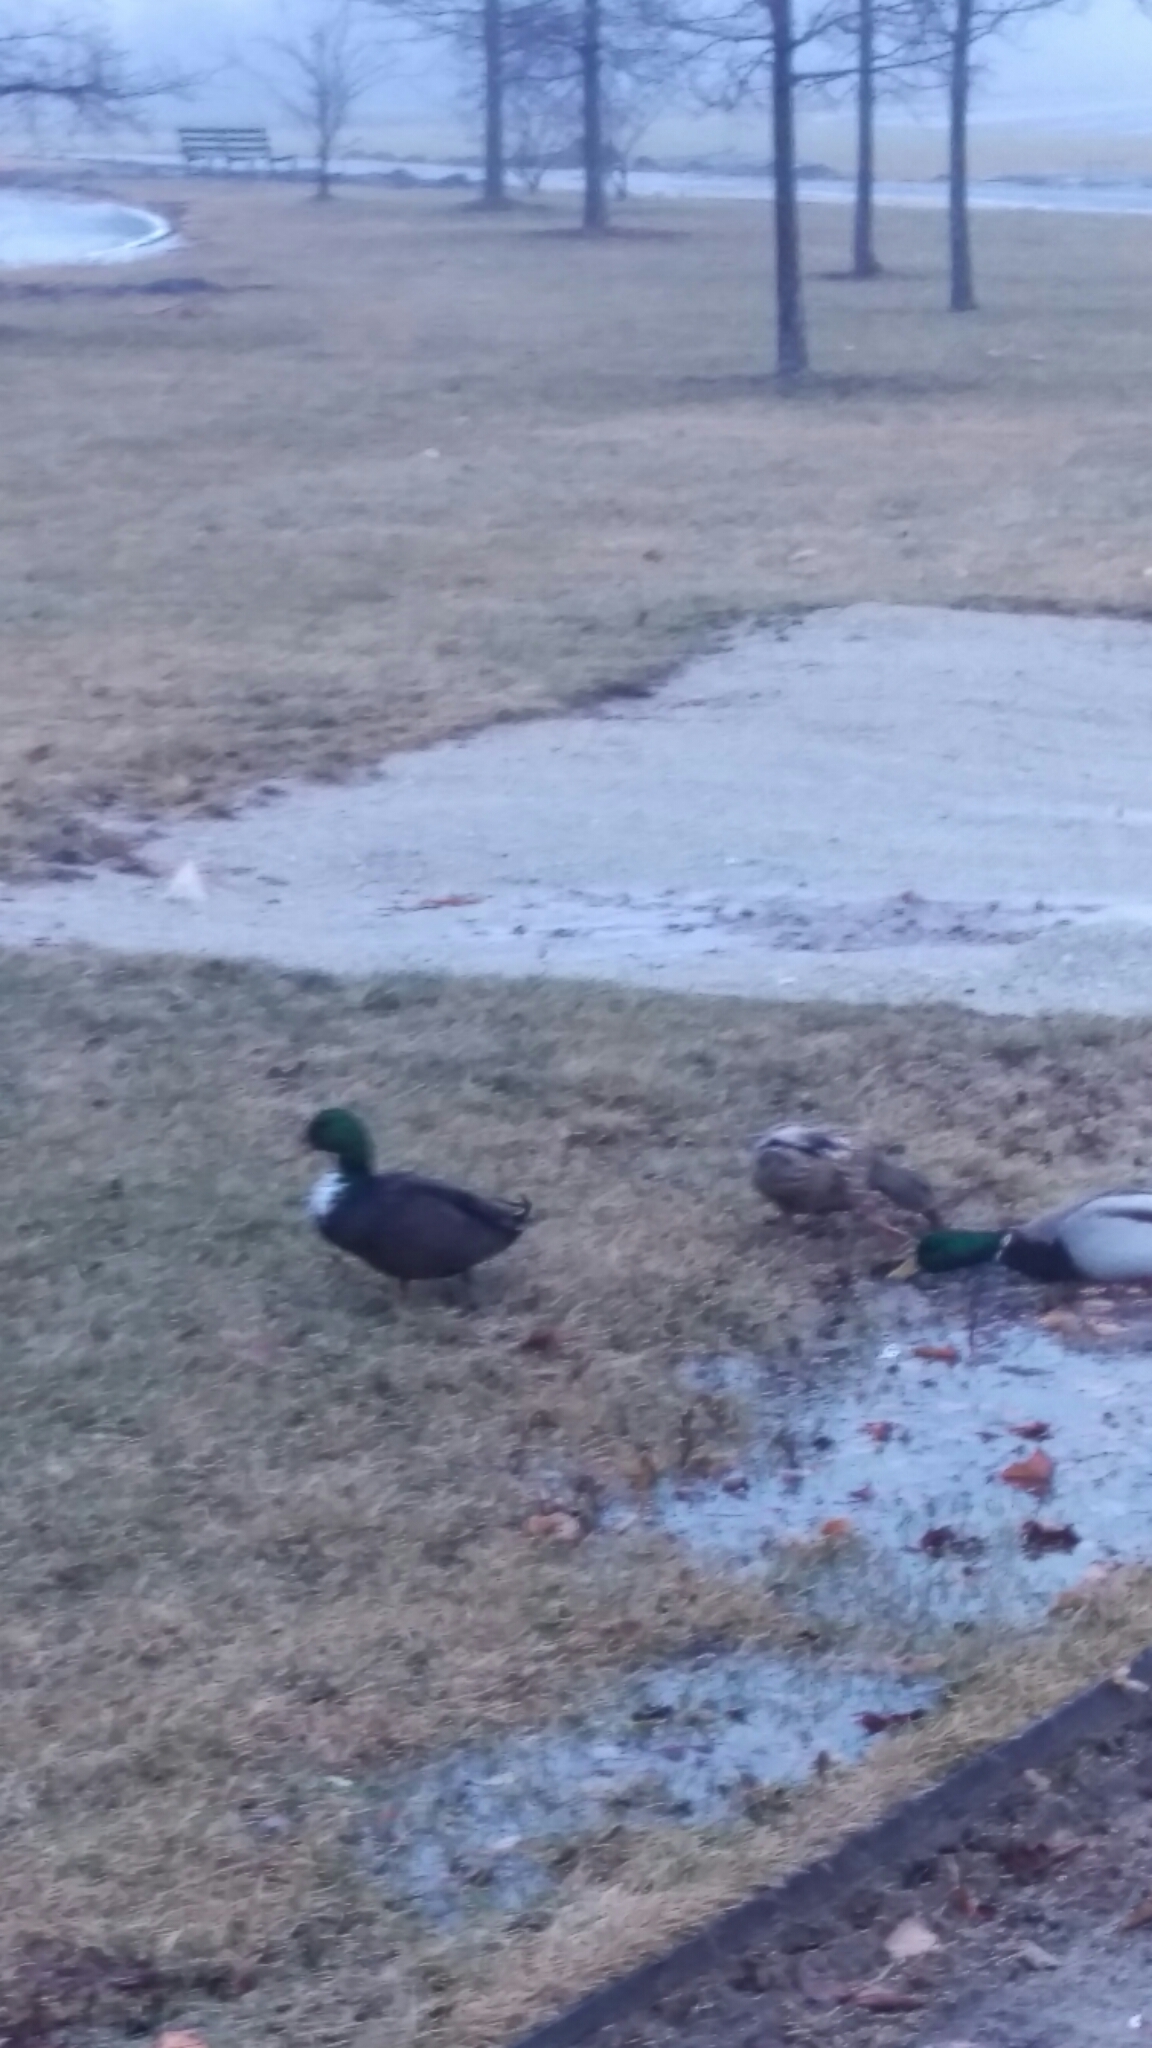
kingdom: Animalia
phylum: Chordata
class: Aves
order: Anseriformes
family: Anatidae
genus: Anas
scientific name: Anas platyrhynchos
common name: Mallard
